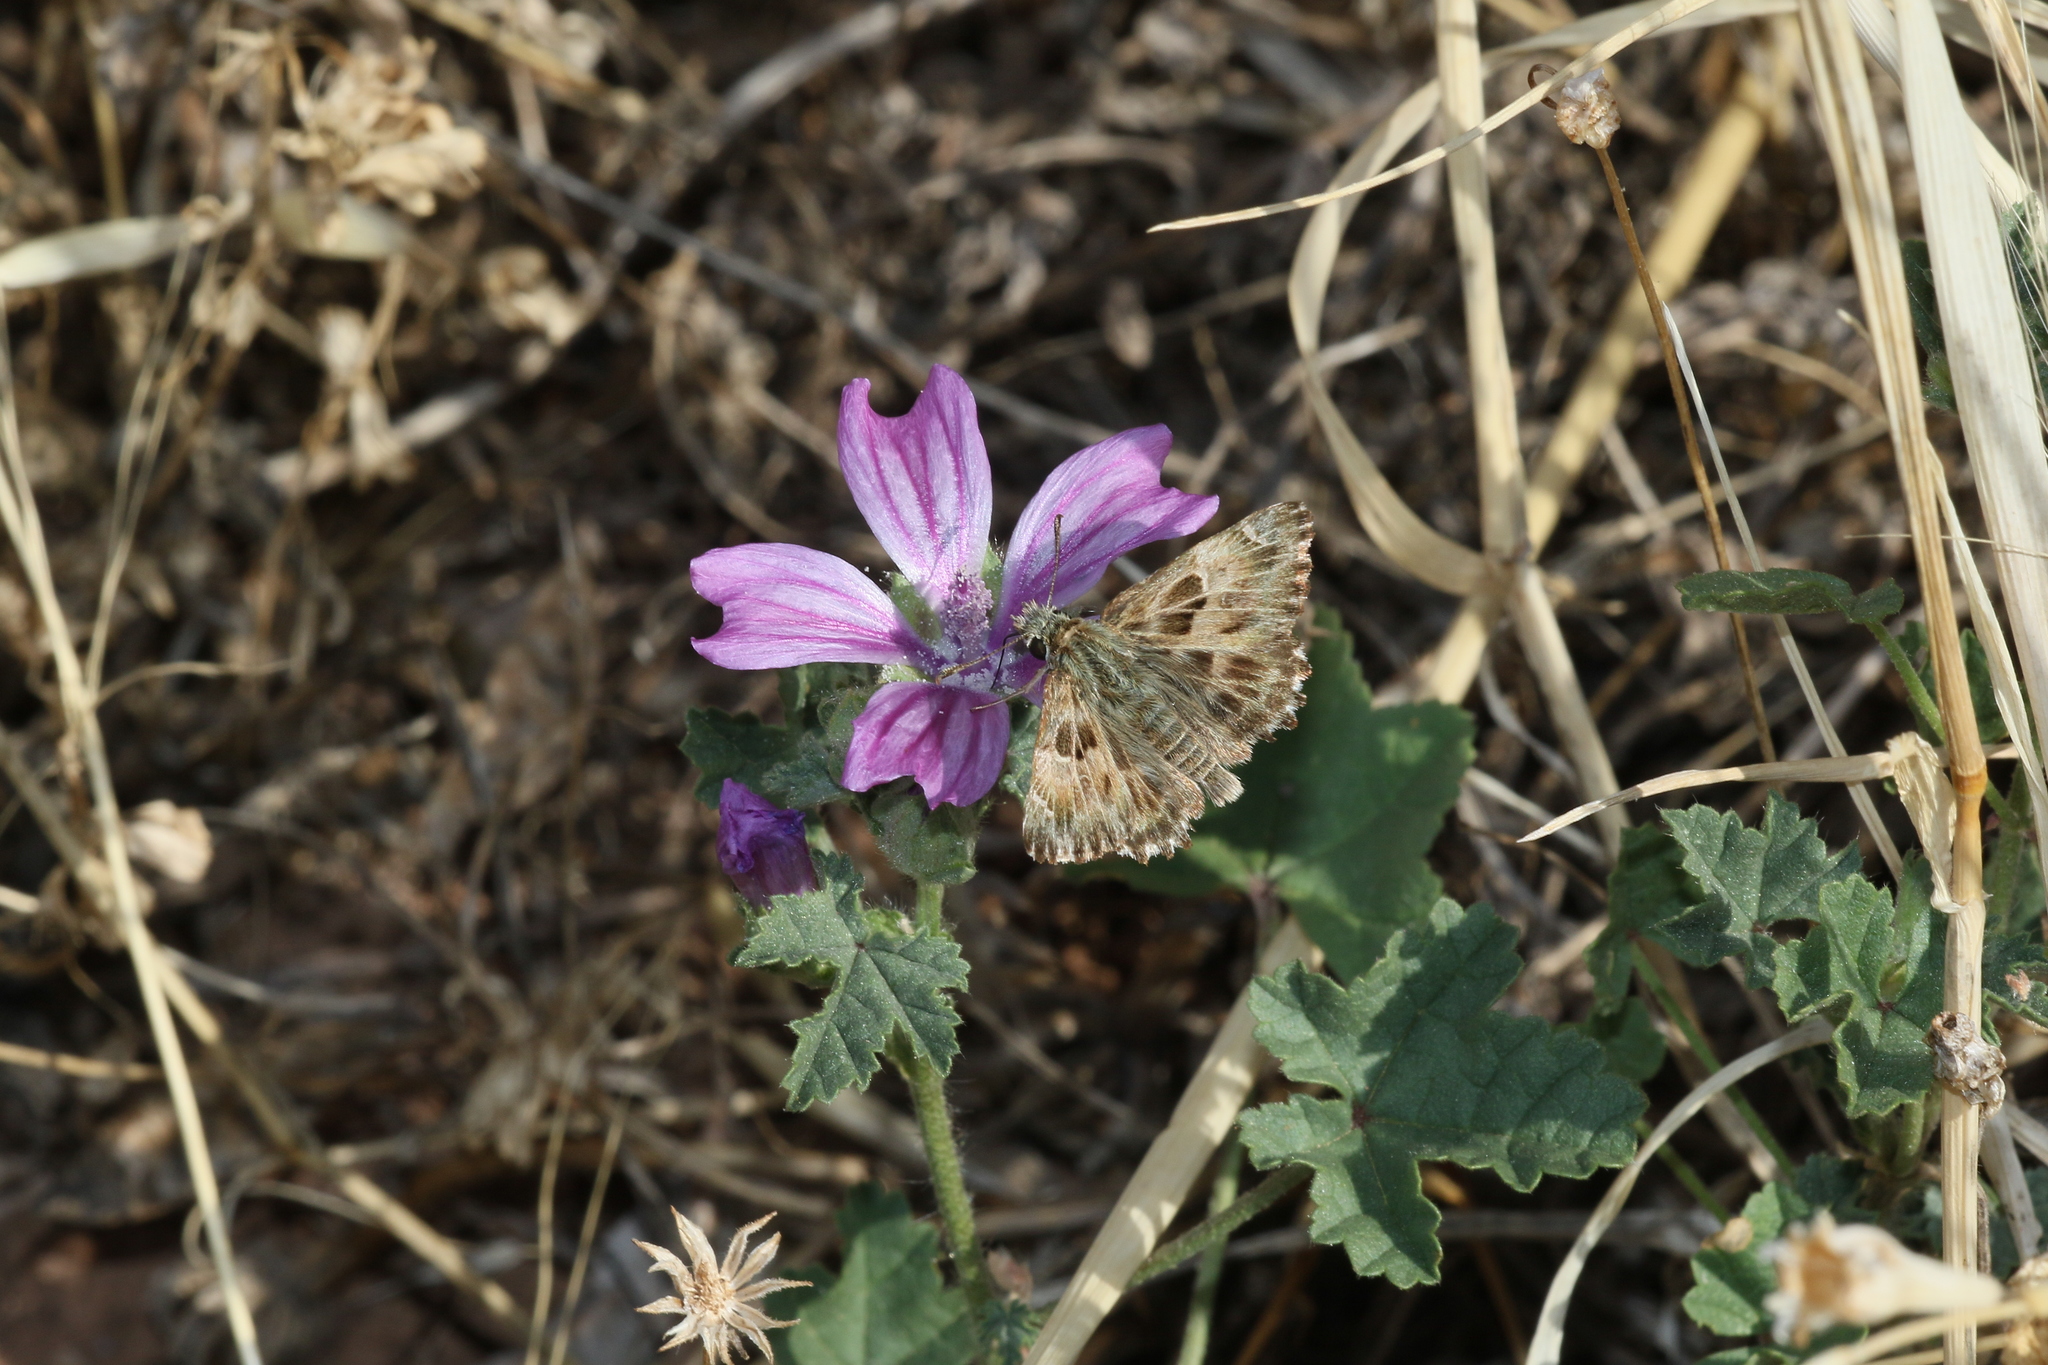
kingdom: Animalia
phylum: Arthropoda
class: Insecta
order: Lepidoptera
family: Hesperiidae
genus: Carcharodus
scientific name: Carcharodus alceae
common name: Mallow skipper
